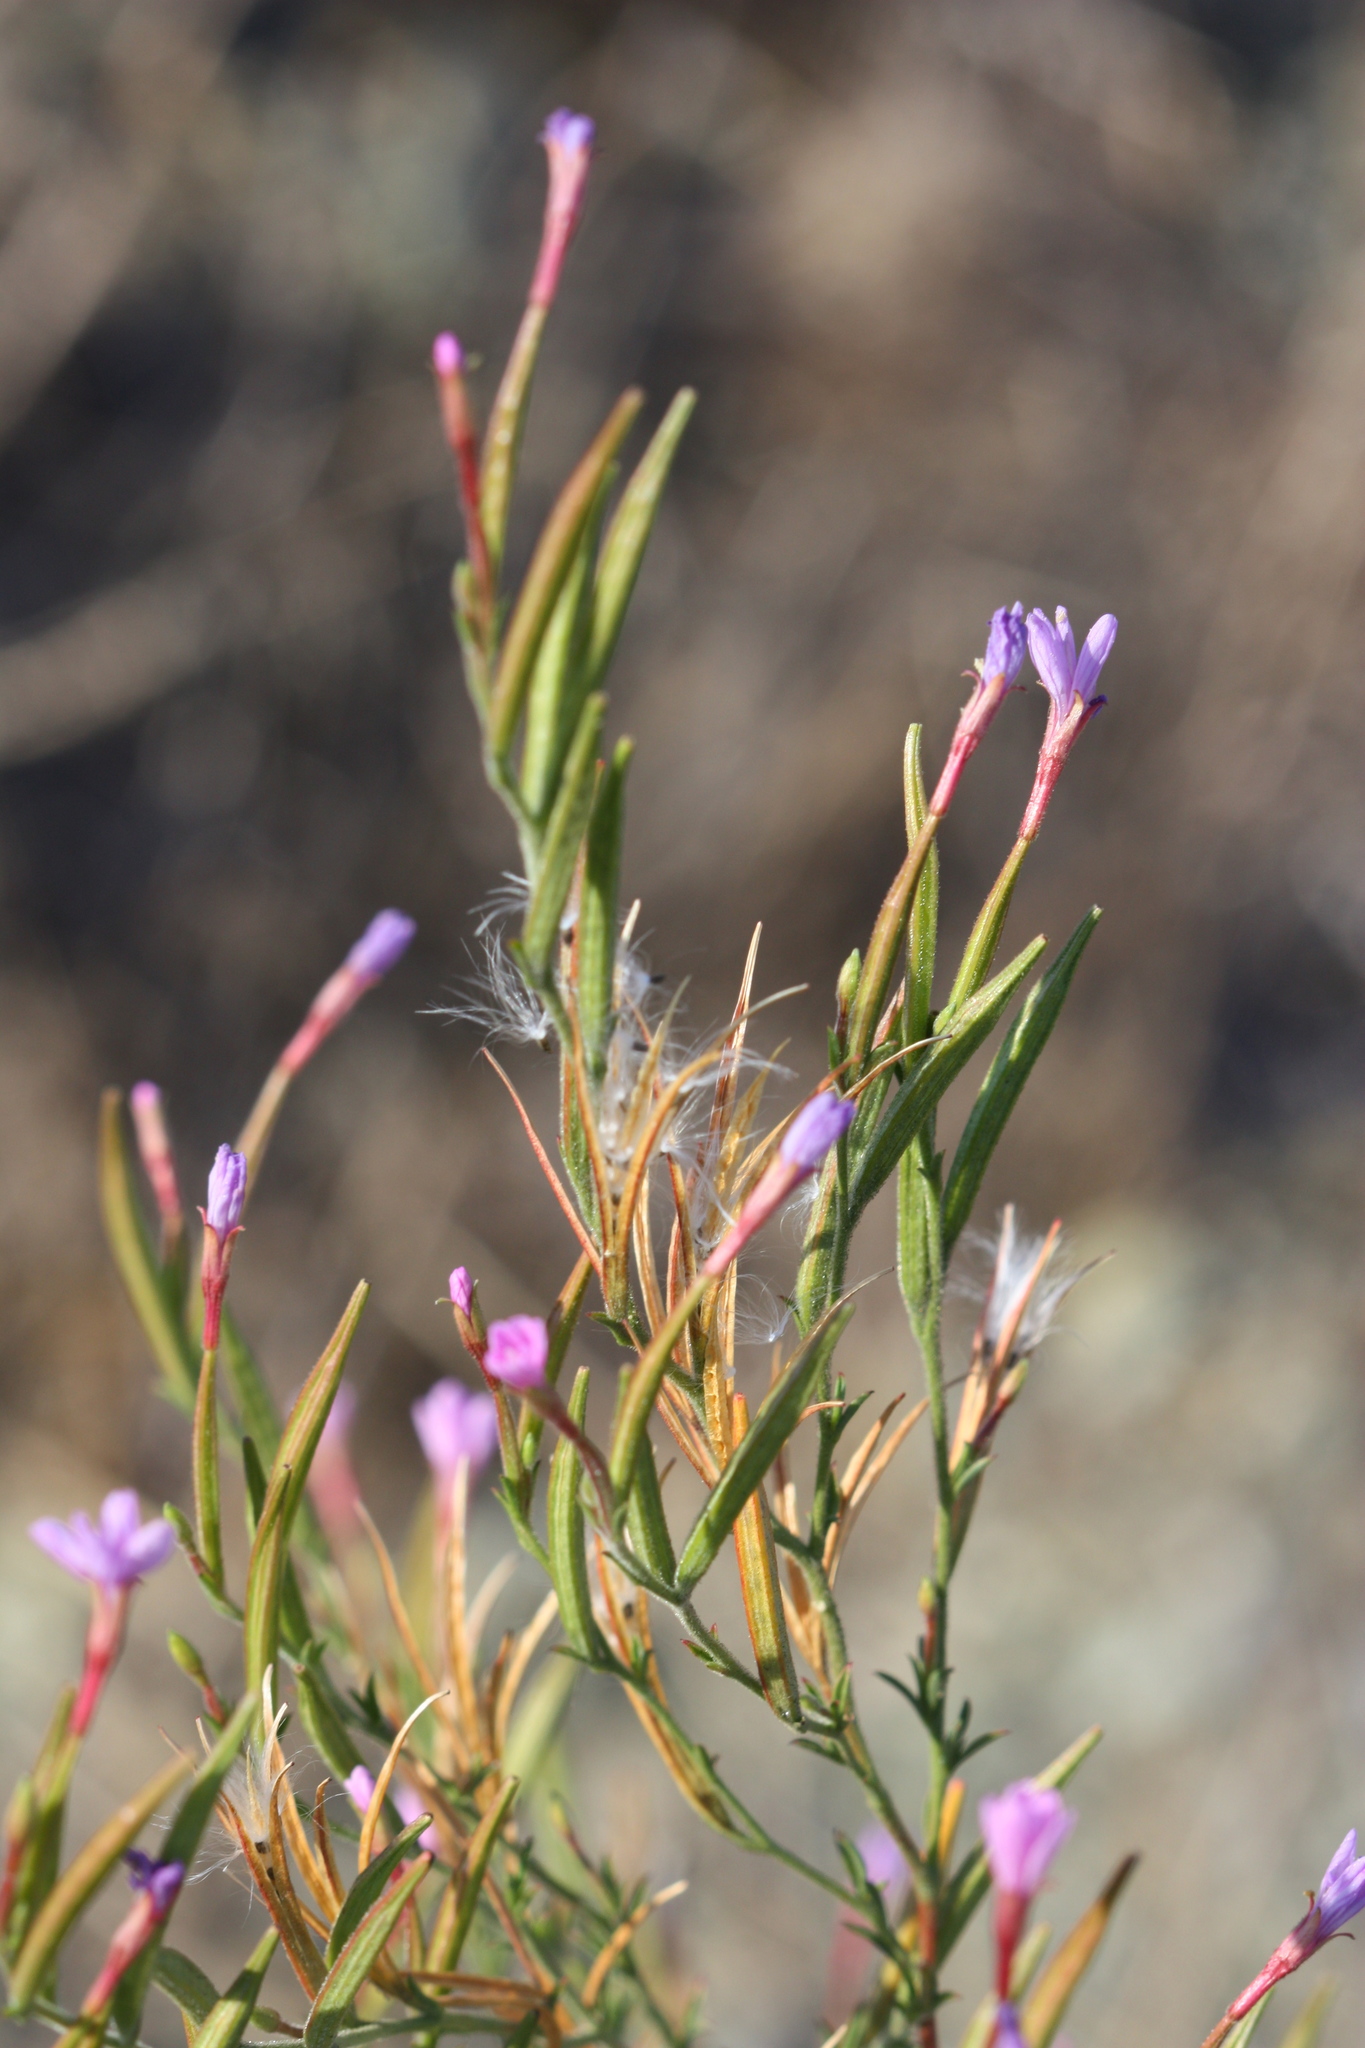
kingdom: Plantae
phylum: Tracheophyta
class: Magnoliopsida
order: Myrtales
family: Onagraceae
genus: Epilobium
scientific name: Epilobium brachycarpum
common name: Annual willowherb
